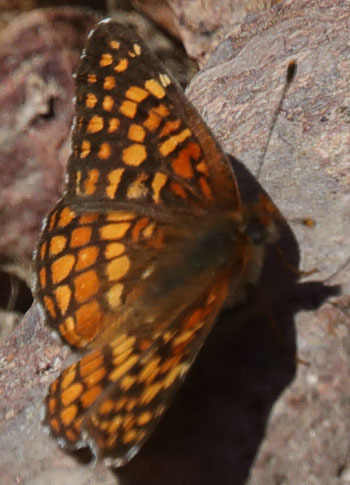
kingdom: Animalia
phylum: Arthropoda
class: Insecta
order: Lepidoptera
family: Nymphalidae
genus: Chlosyne
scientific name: Chlosyne gabbii
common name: Gabb's checkerspot
